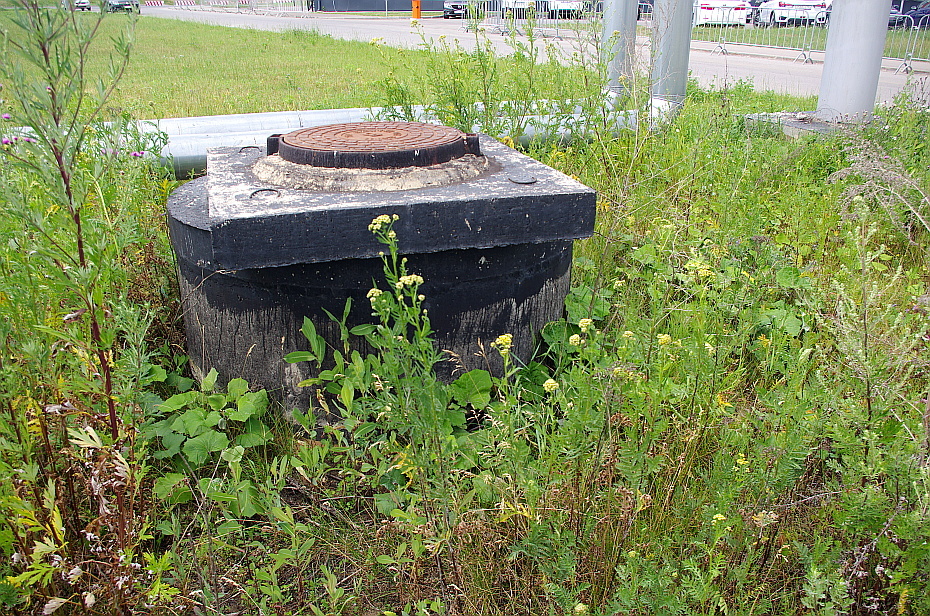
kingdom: Plantae
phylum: Tracheophyta
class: Magnoliopsida
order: Asterales
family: Asteraceae
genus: Tanacetum
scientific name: Tanacetum vulgare
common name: Common tansy
